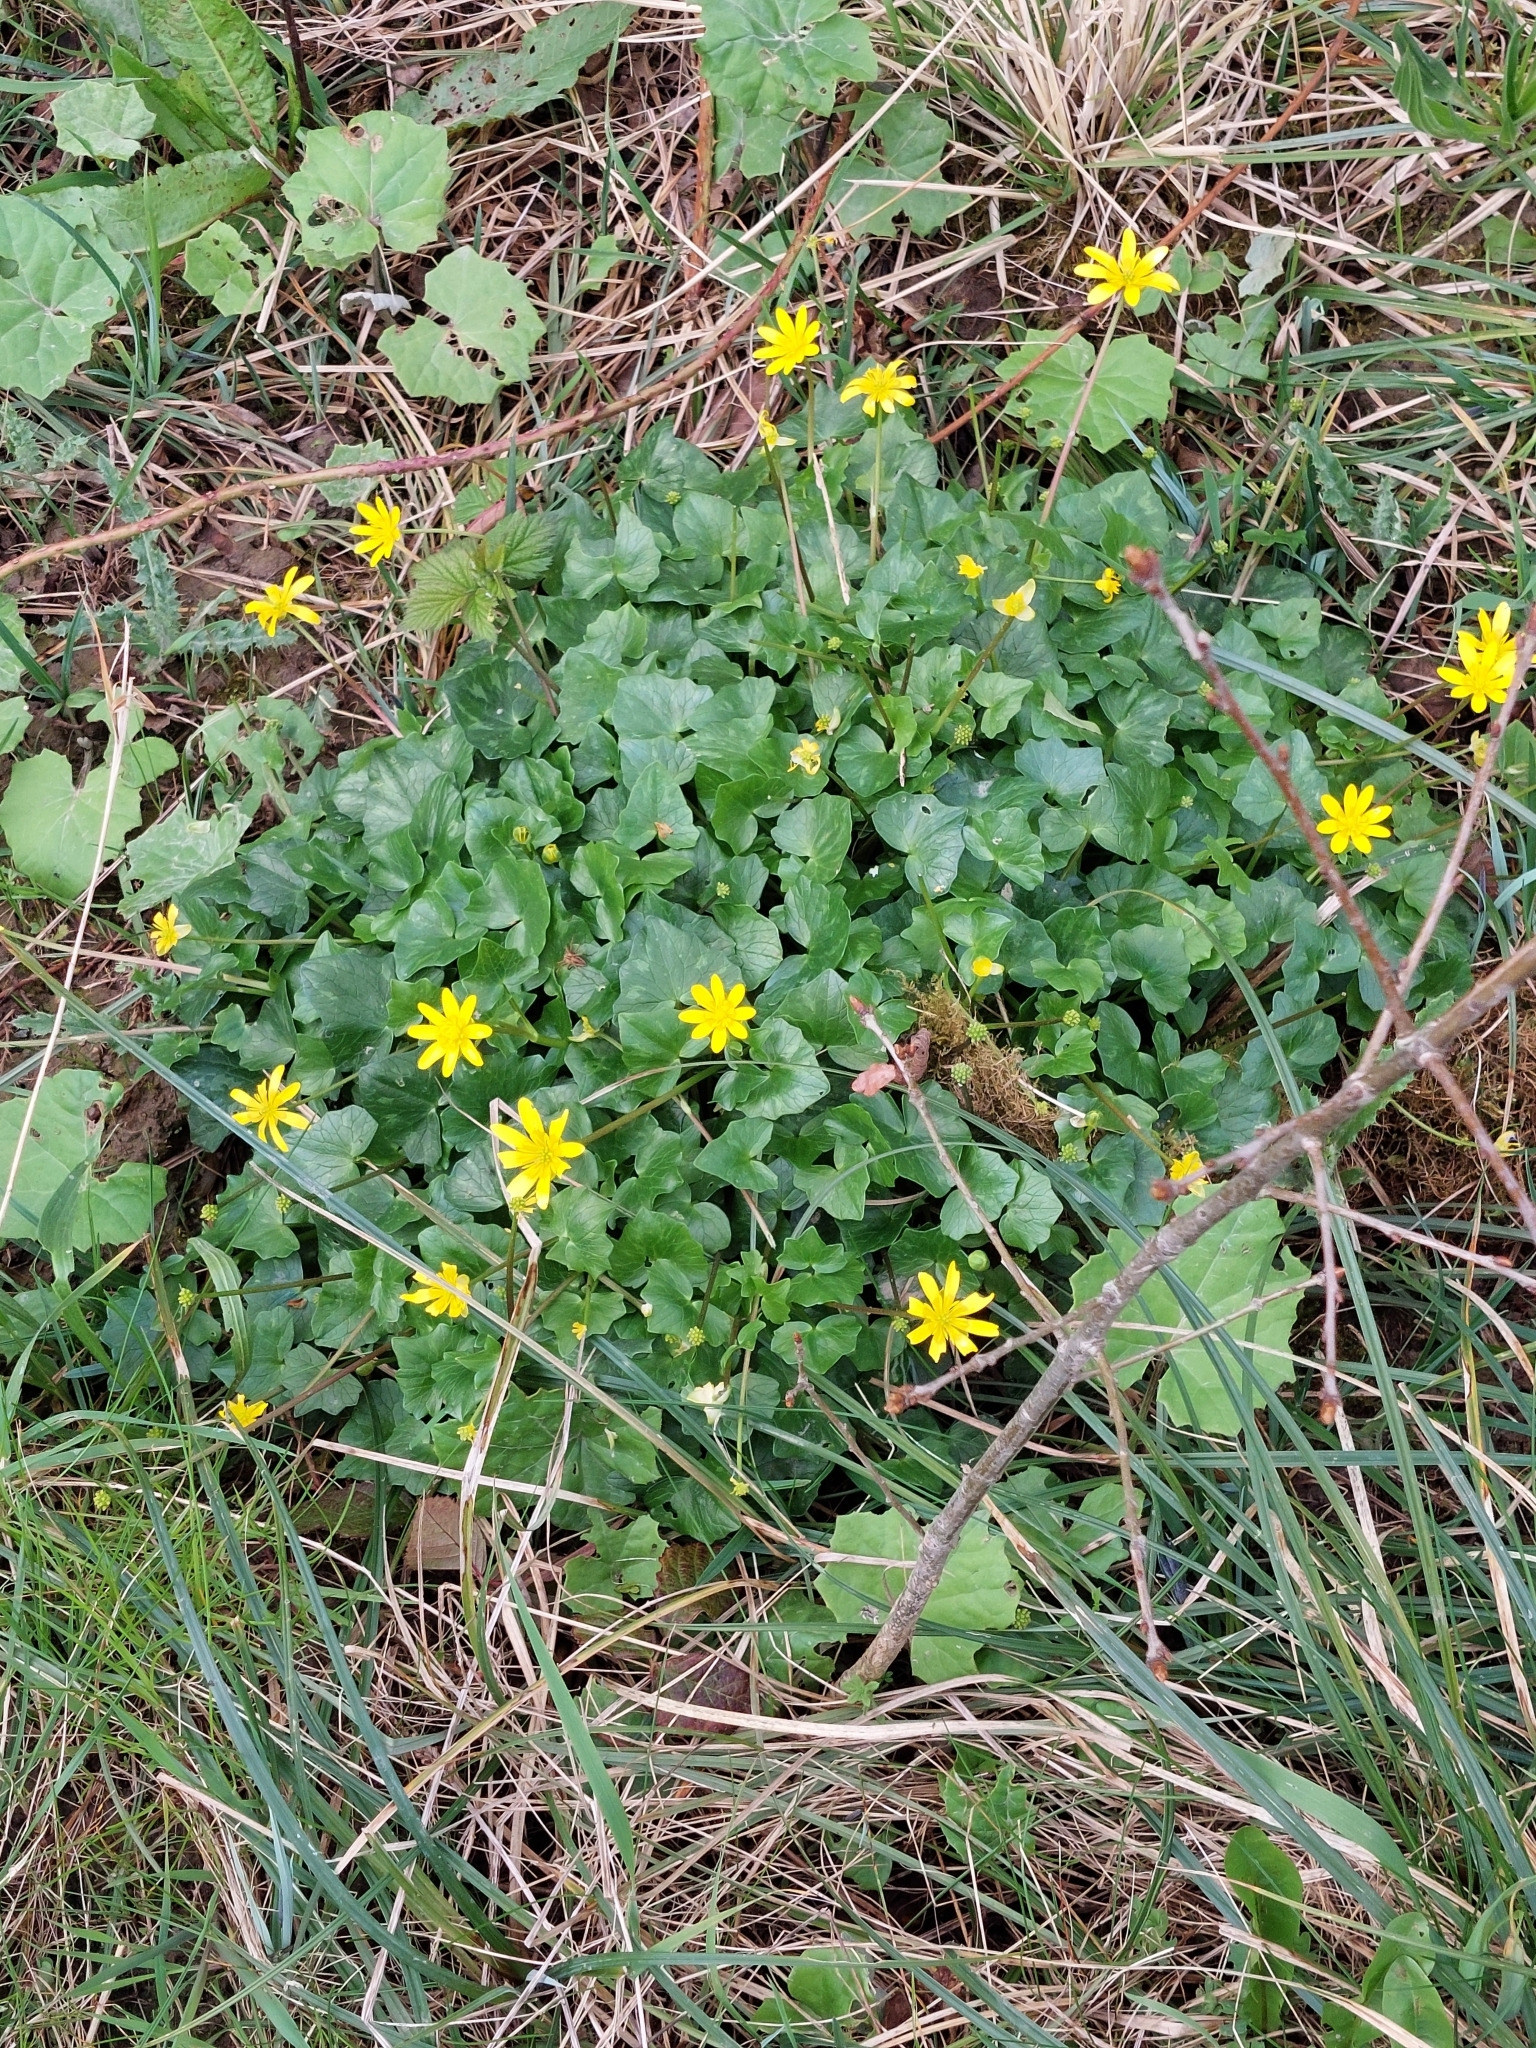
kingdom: Plantae
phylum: Tracheophyta
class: Magnoliopsida
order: Ranunculales
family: Ranunculaceae
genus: Ficaria
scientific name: Ficaria verna
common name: Lesser celandine
